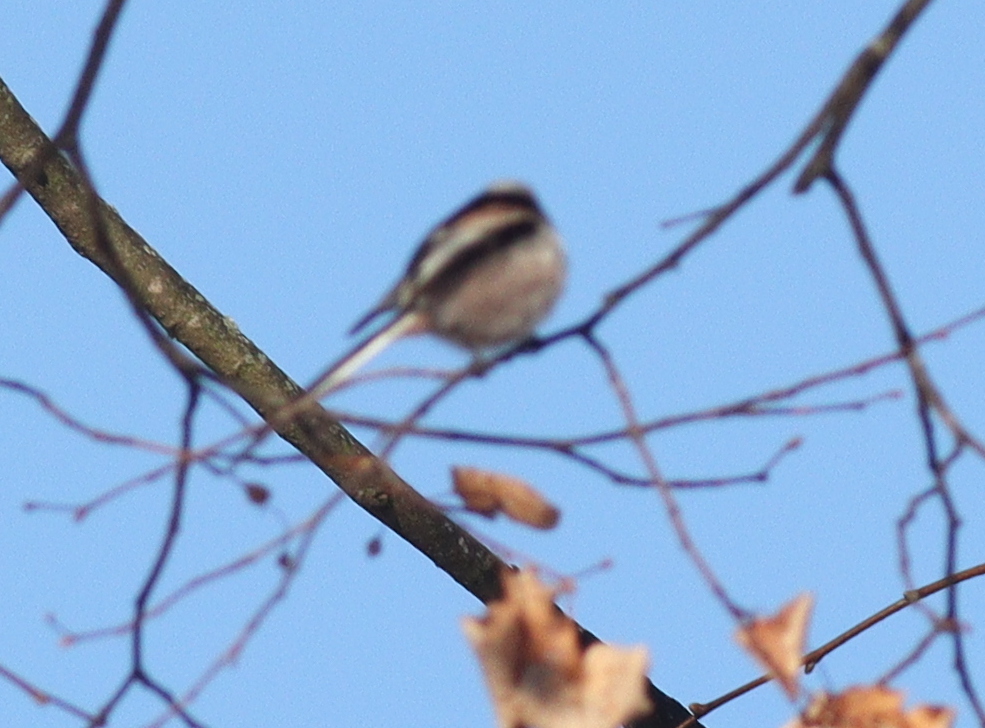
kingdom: Animalia
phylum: Chordata
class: Aves
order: Passeriformes
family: Aegithalidae
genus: Aegithalos
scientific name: Aegithalos caudatus
